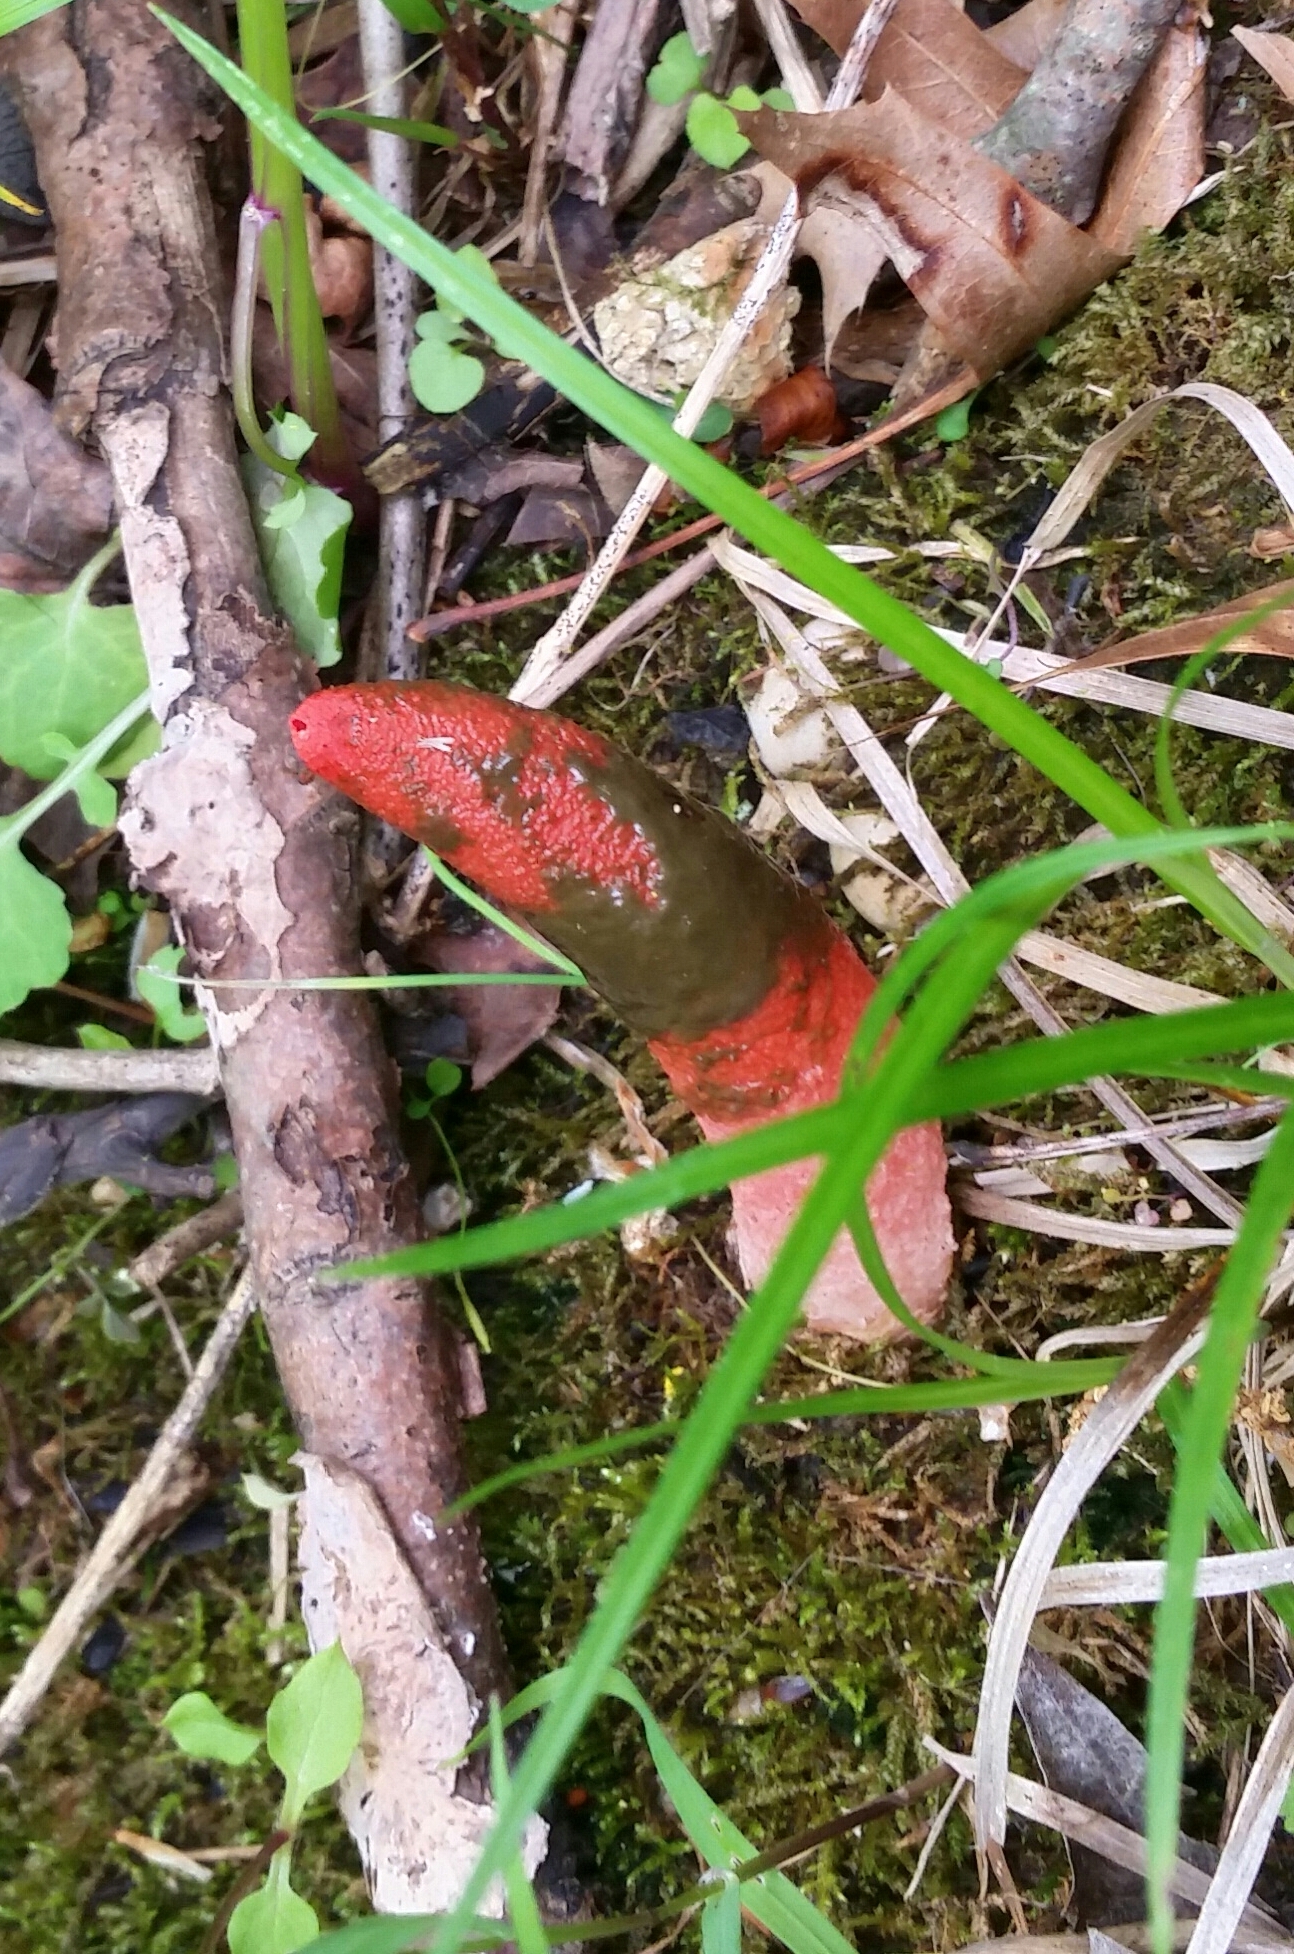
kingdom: Fungi
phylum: Basidiomycota
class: Agaricomycetes
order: Phallales
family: Phallaceae
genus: Mutinus
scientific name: Mutinus elegans
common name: Devil's dipstick
